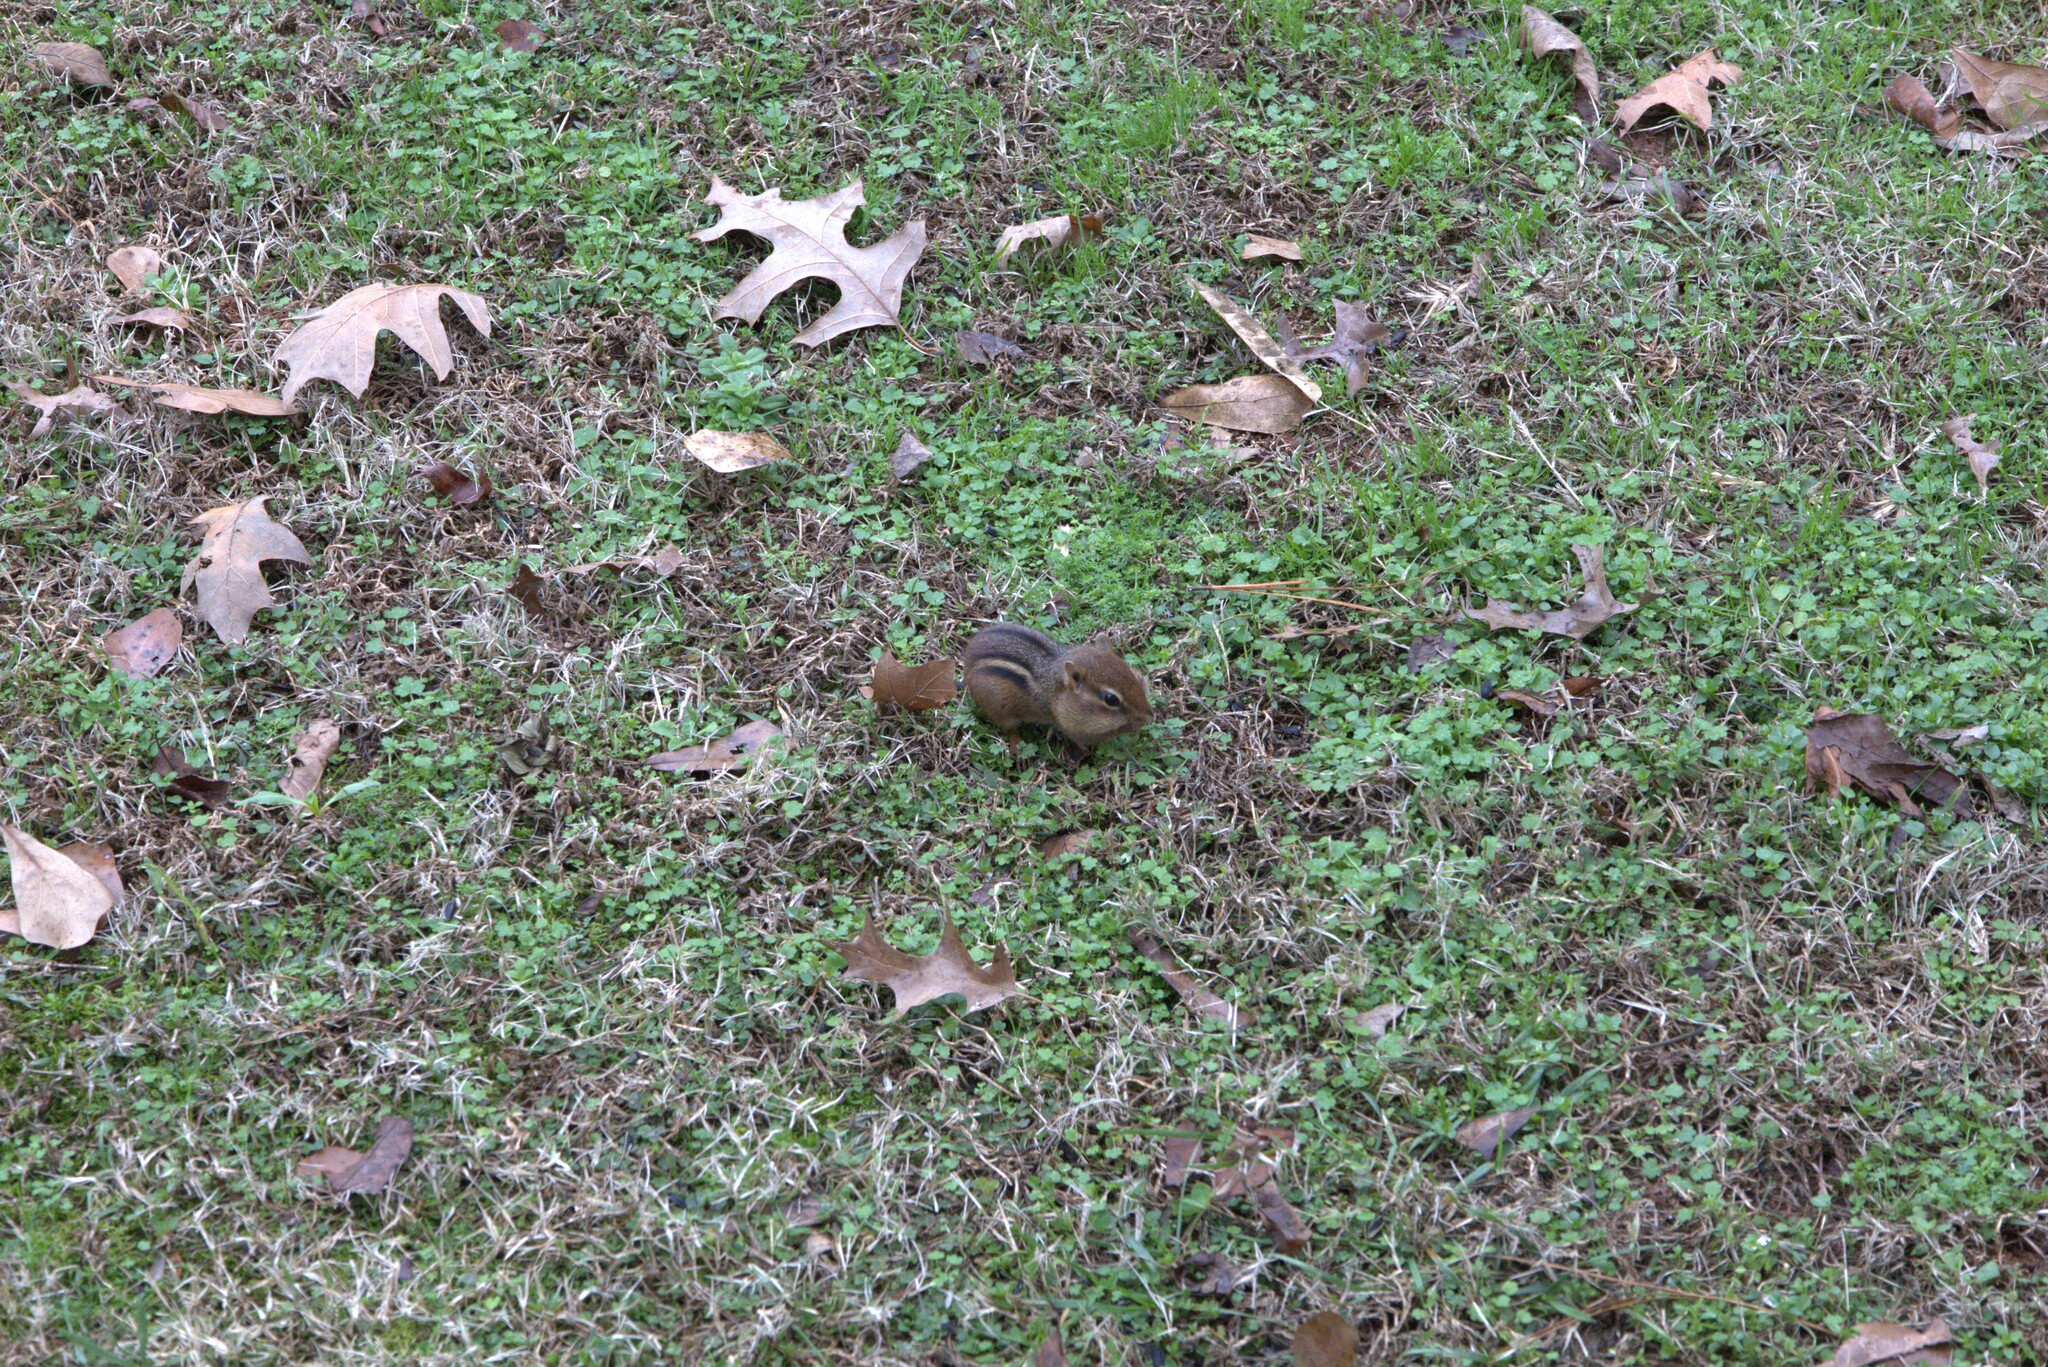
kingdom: Animalia
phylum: Chordata
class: Mammalia
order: Rodentia
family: Sciuridae
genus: Tamias
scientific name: Tamias striatus
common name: Eastern chipmunk
